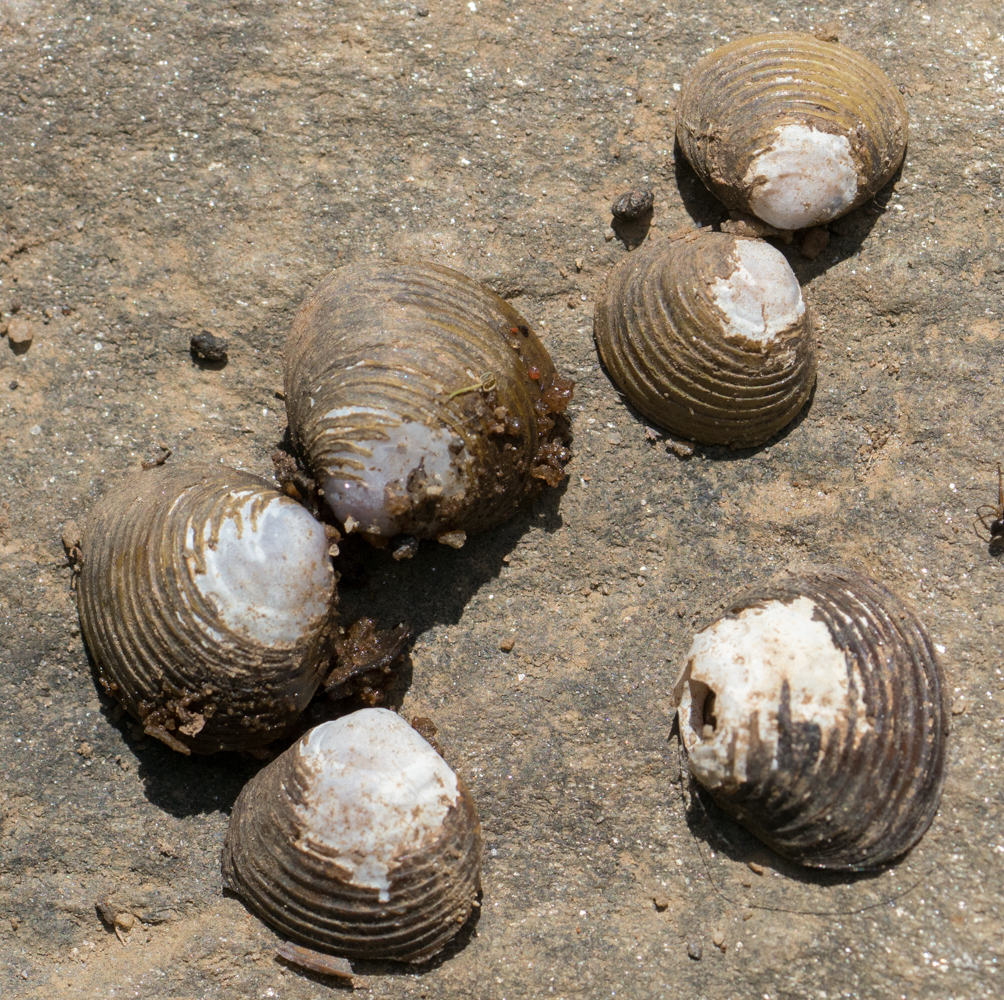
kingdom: Animalia
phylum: Mollusca
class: Bivalvia
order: Venerida
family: Cyrenidae
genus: Corbicula
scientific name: Corbicula fluminea
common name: Asian clam
